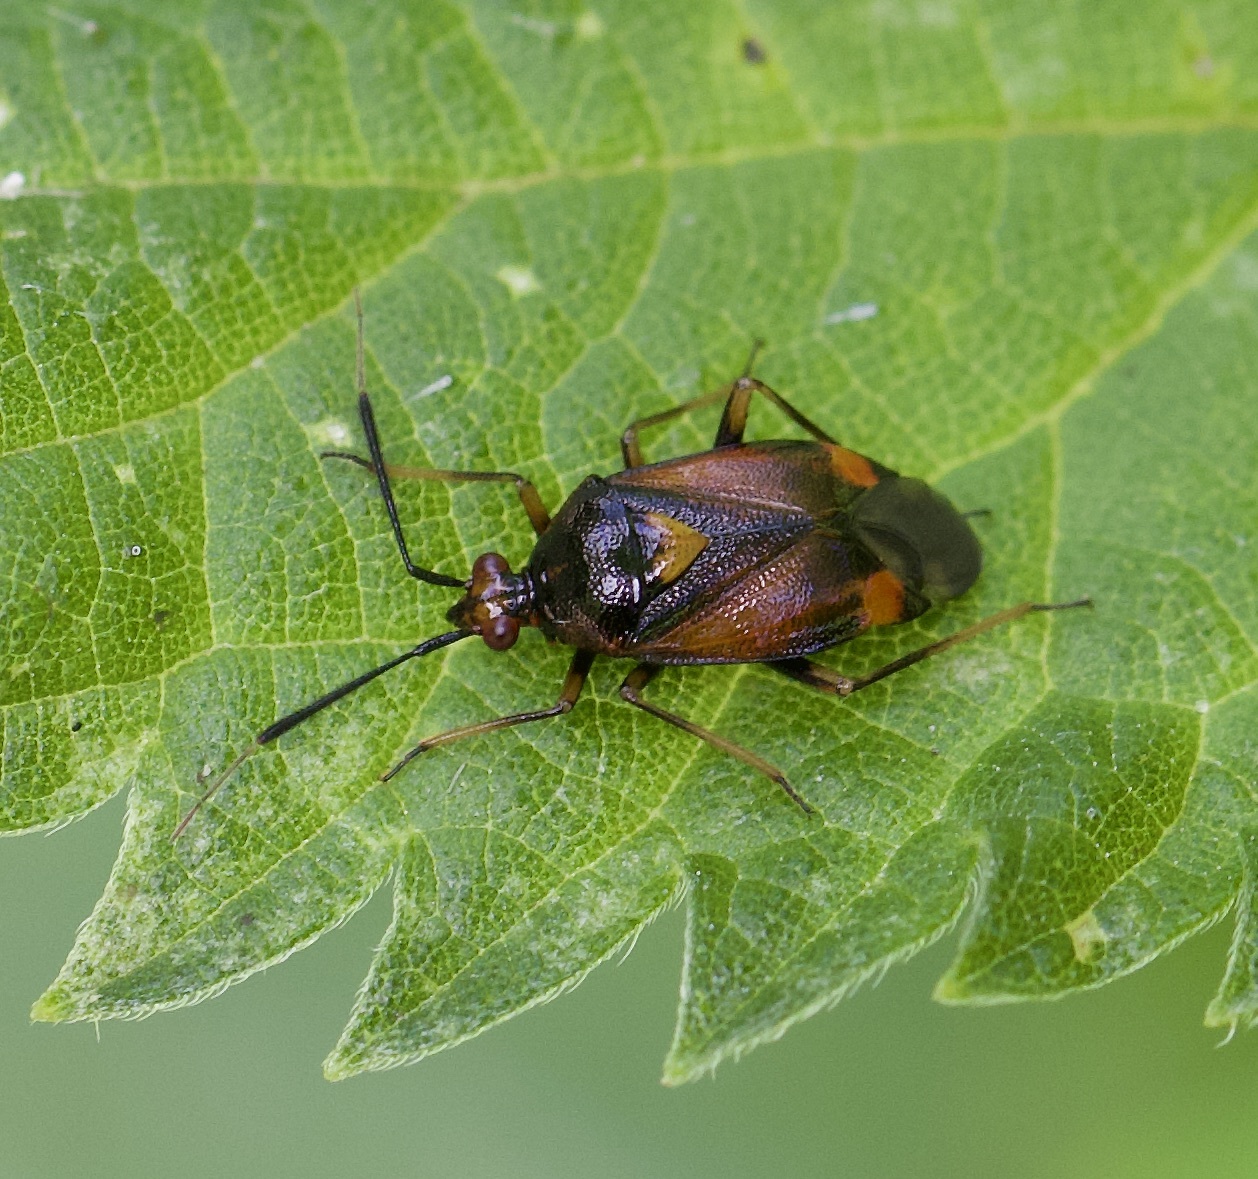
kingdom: Animalia
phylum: Arthropoda
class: Insecta
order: Hemiptera
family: Miridae
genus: Deraeocoris
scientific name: Deraeocoris ruber
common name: Plant bug
